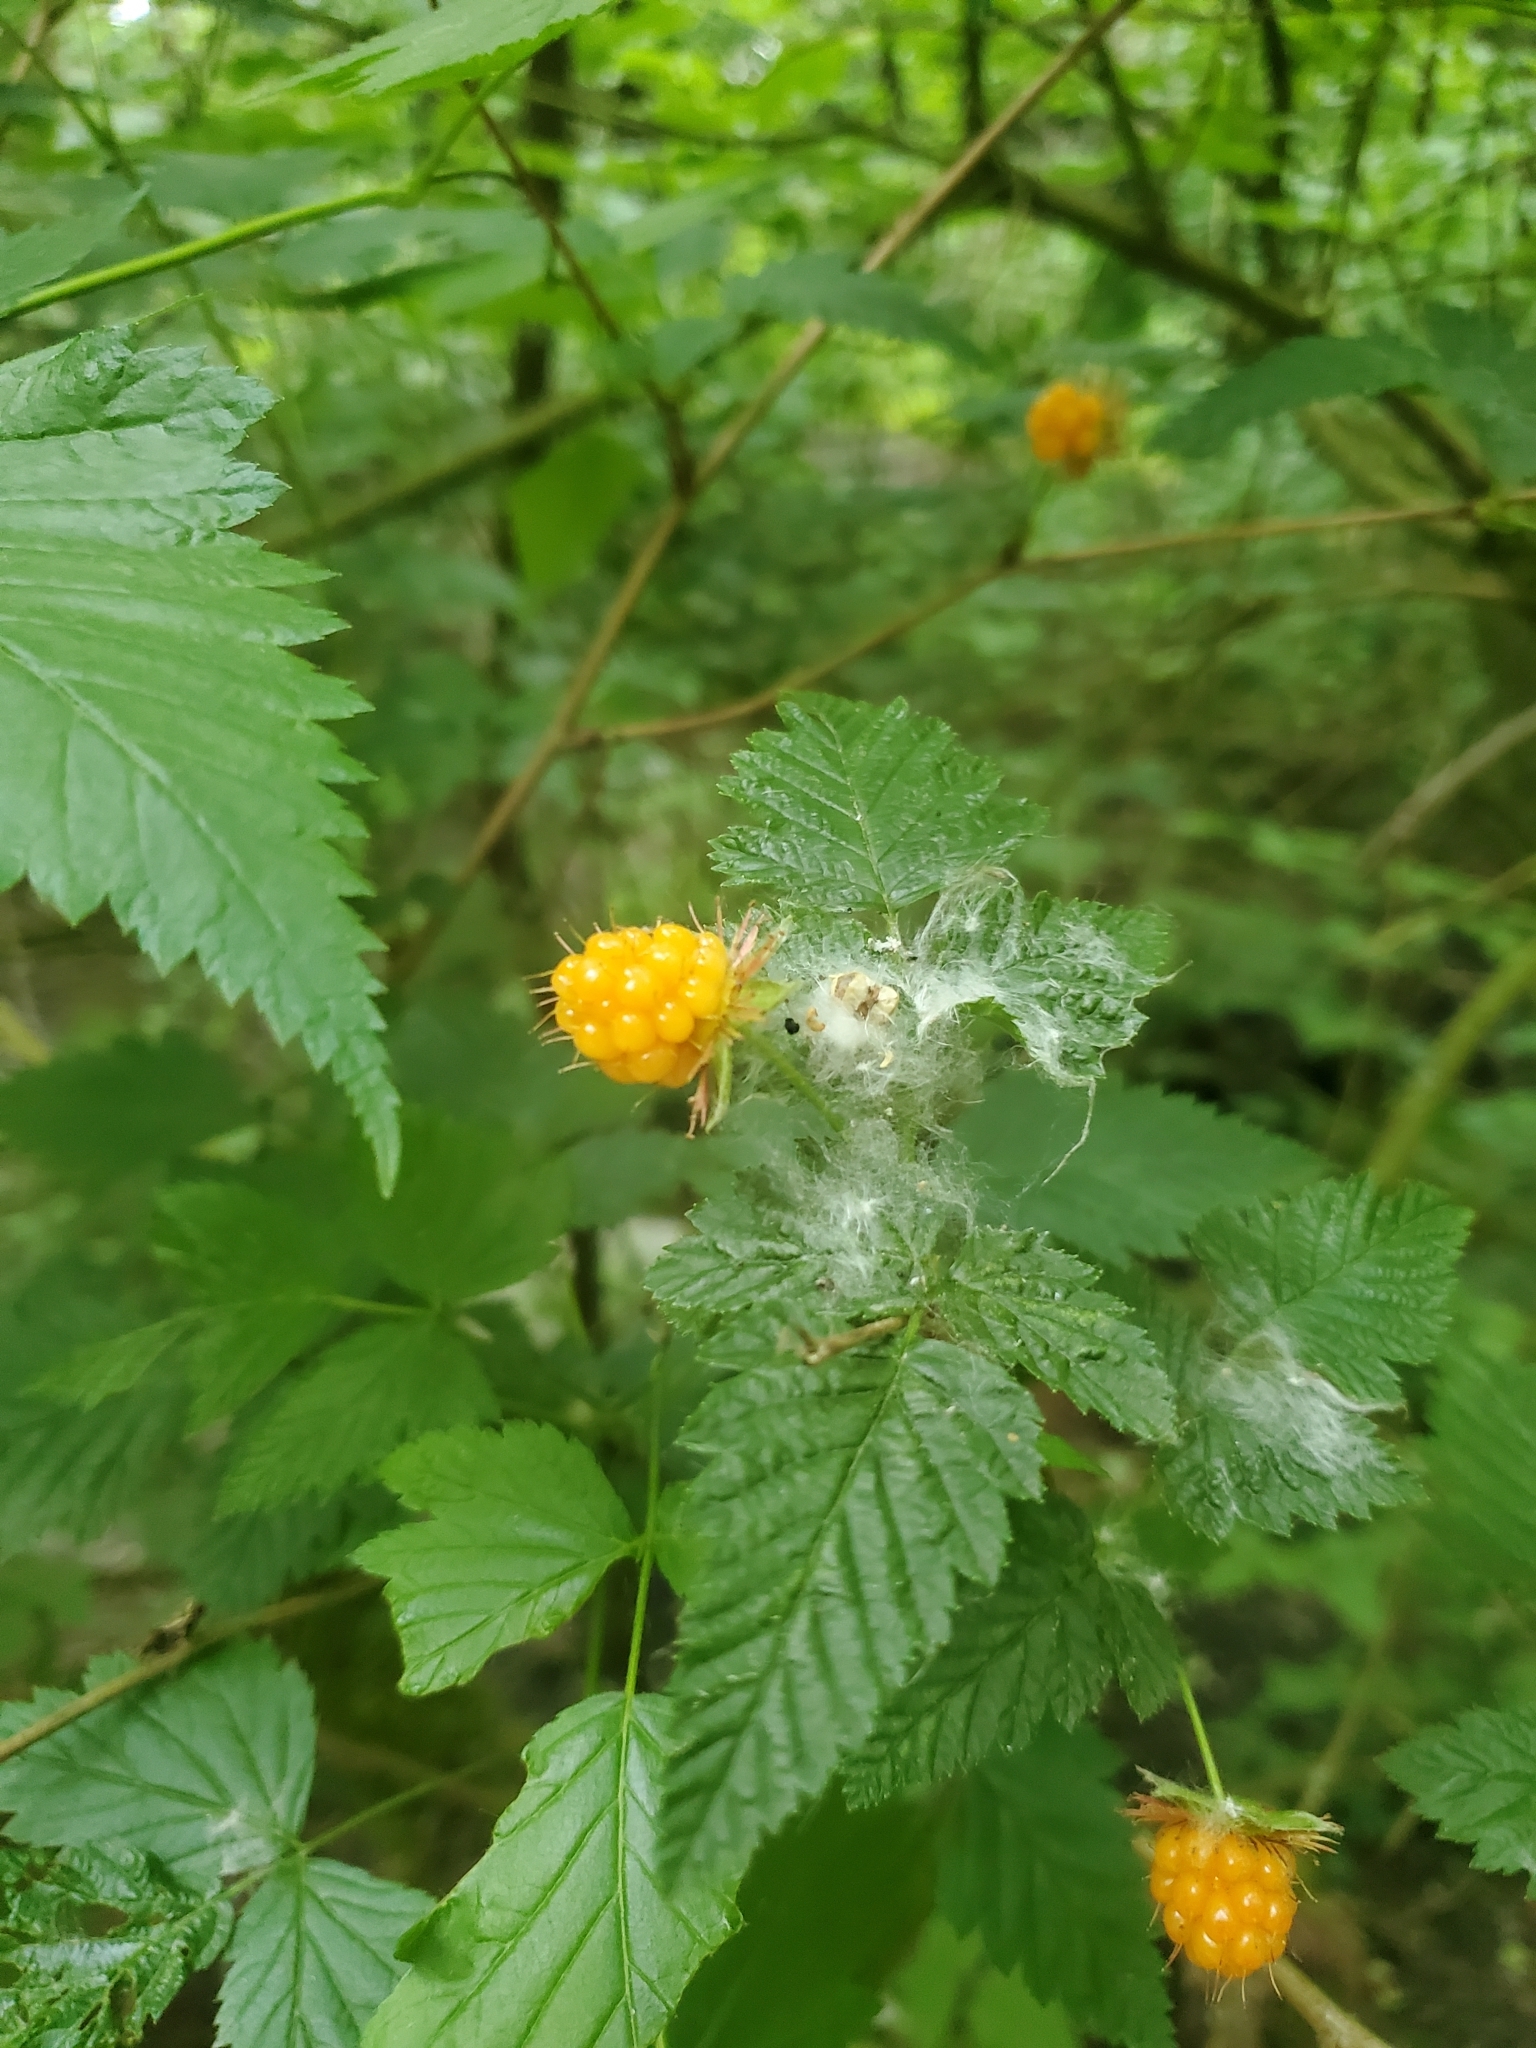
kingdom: Plantae
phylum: Tracheophyta
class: Magnoliopsida
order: Rosales
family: Rosaceae
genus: Rubus
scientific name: Rubus spectabilis
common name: Salmonberry
